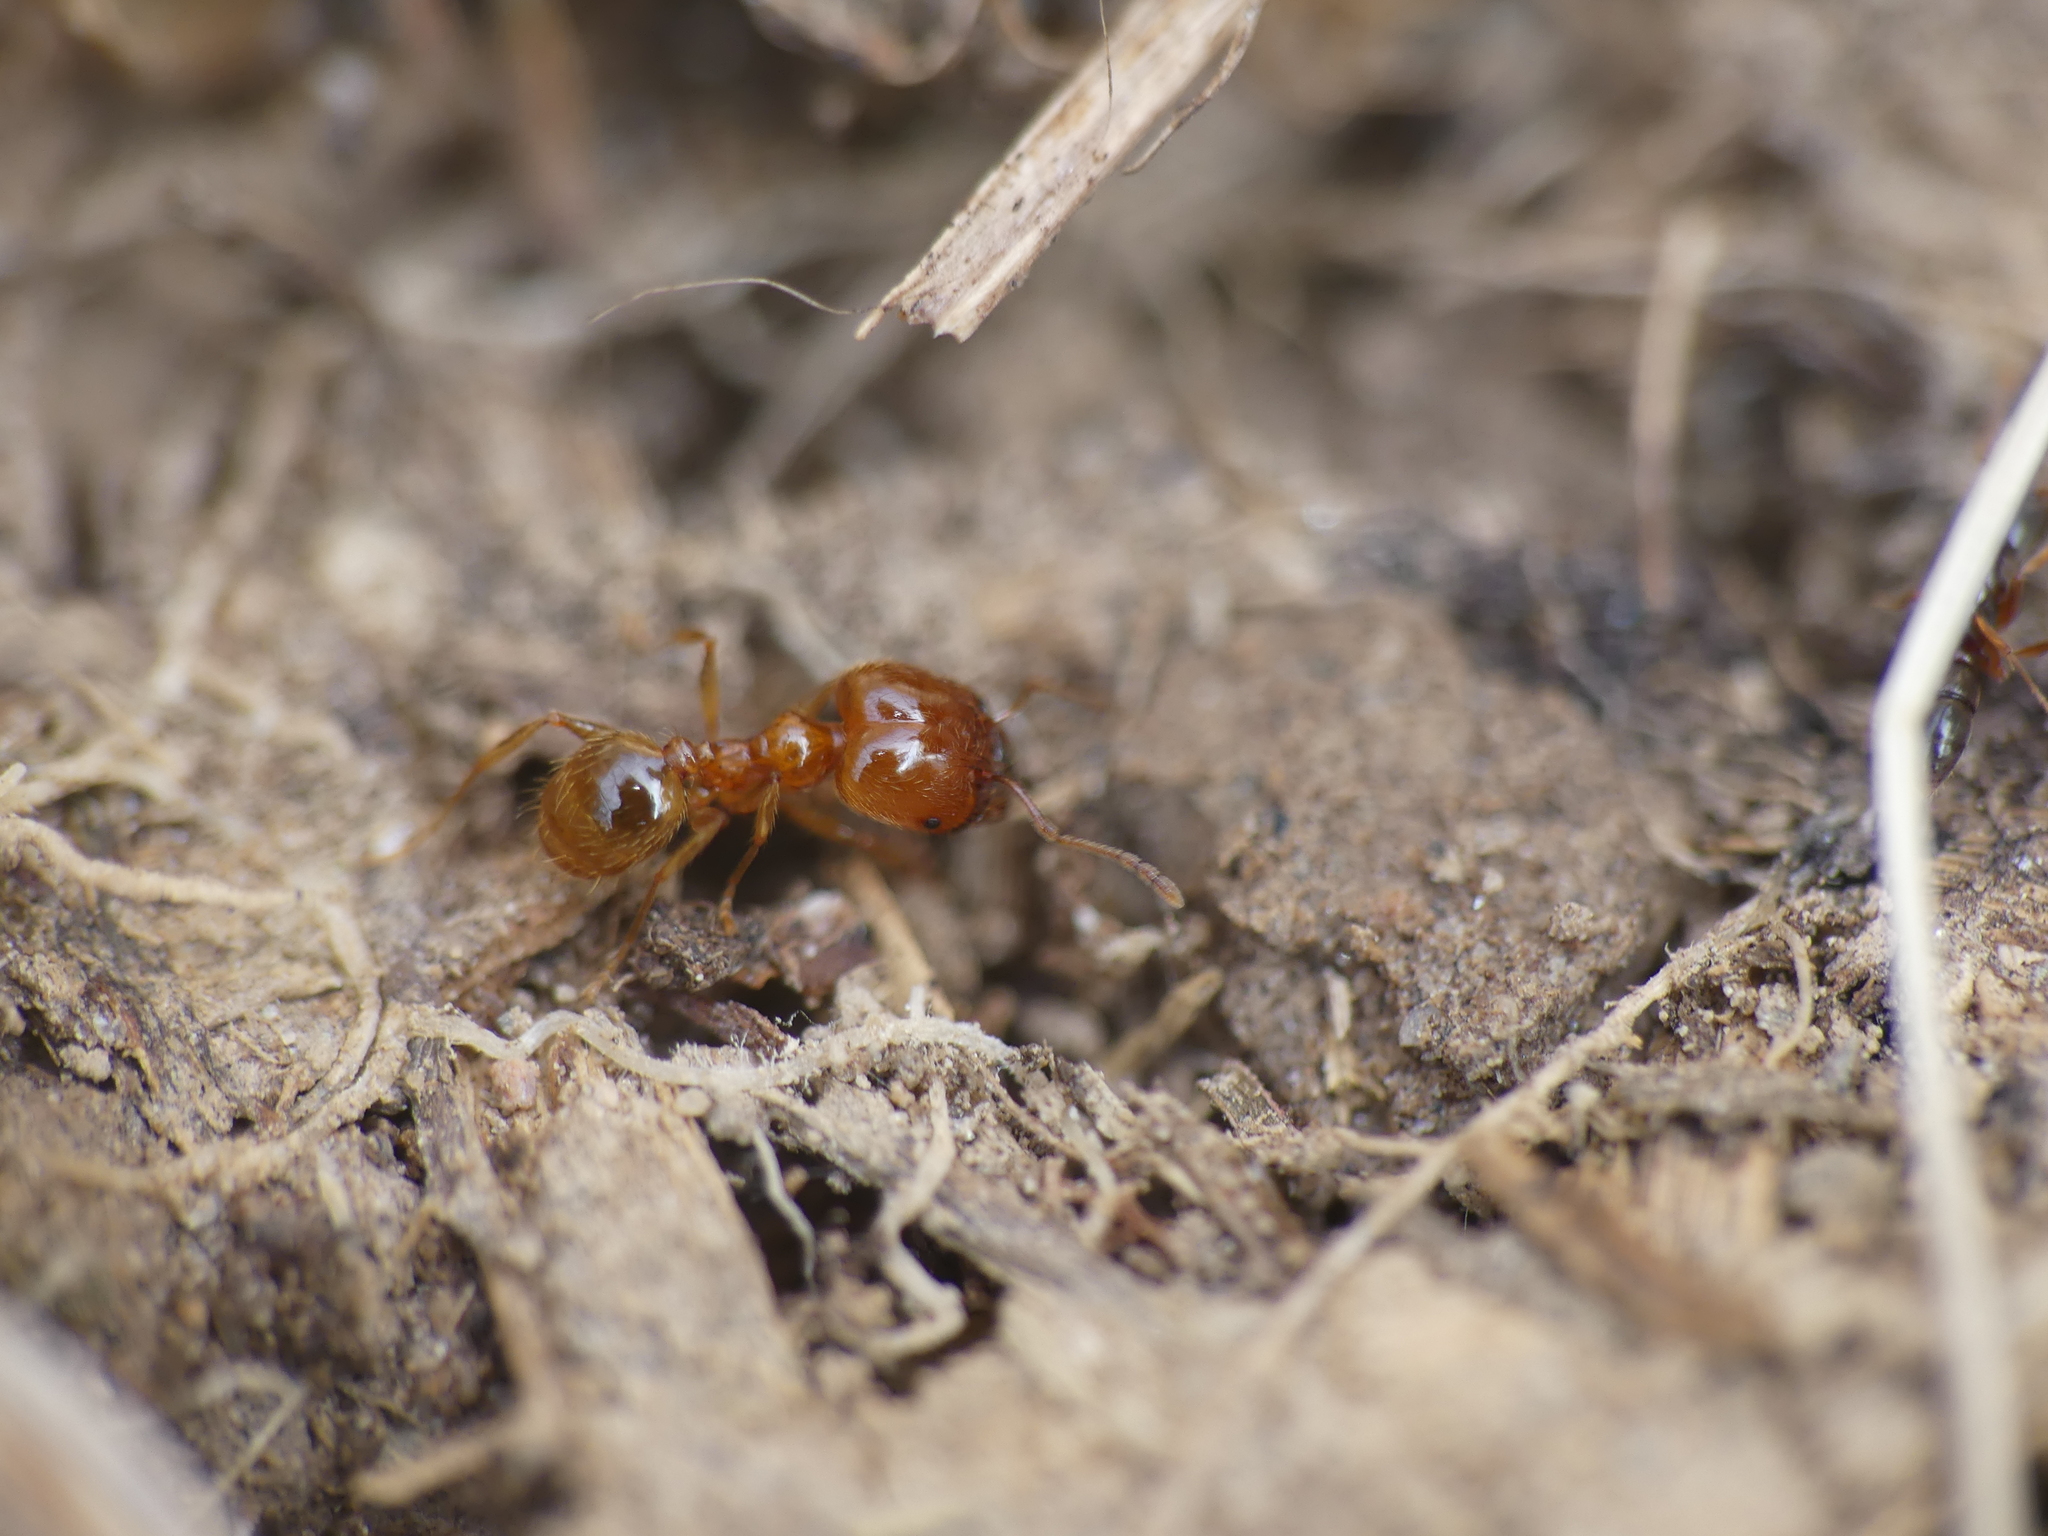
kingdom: Animalia
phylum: Arthropoda
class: Insecta
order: Hymenoptera
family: Formicidae
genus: Pheidole
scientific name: Pheidole pallidula
